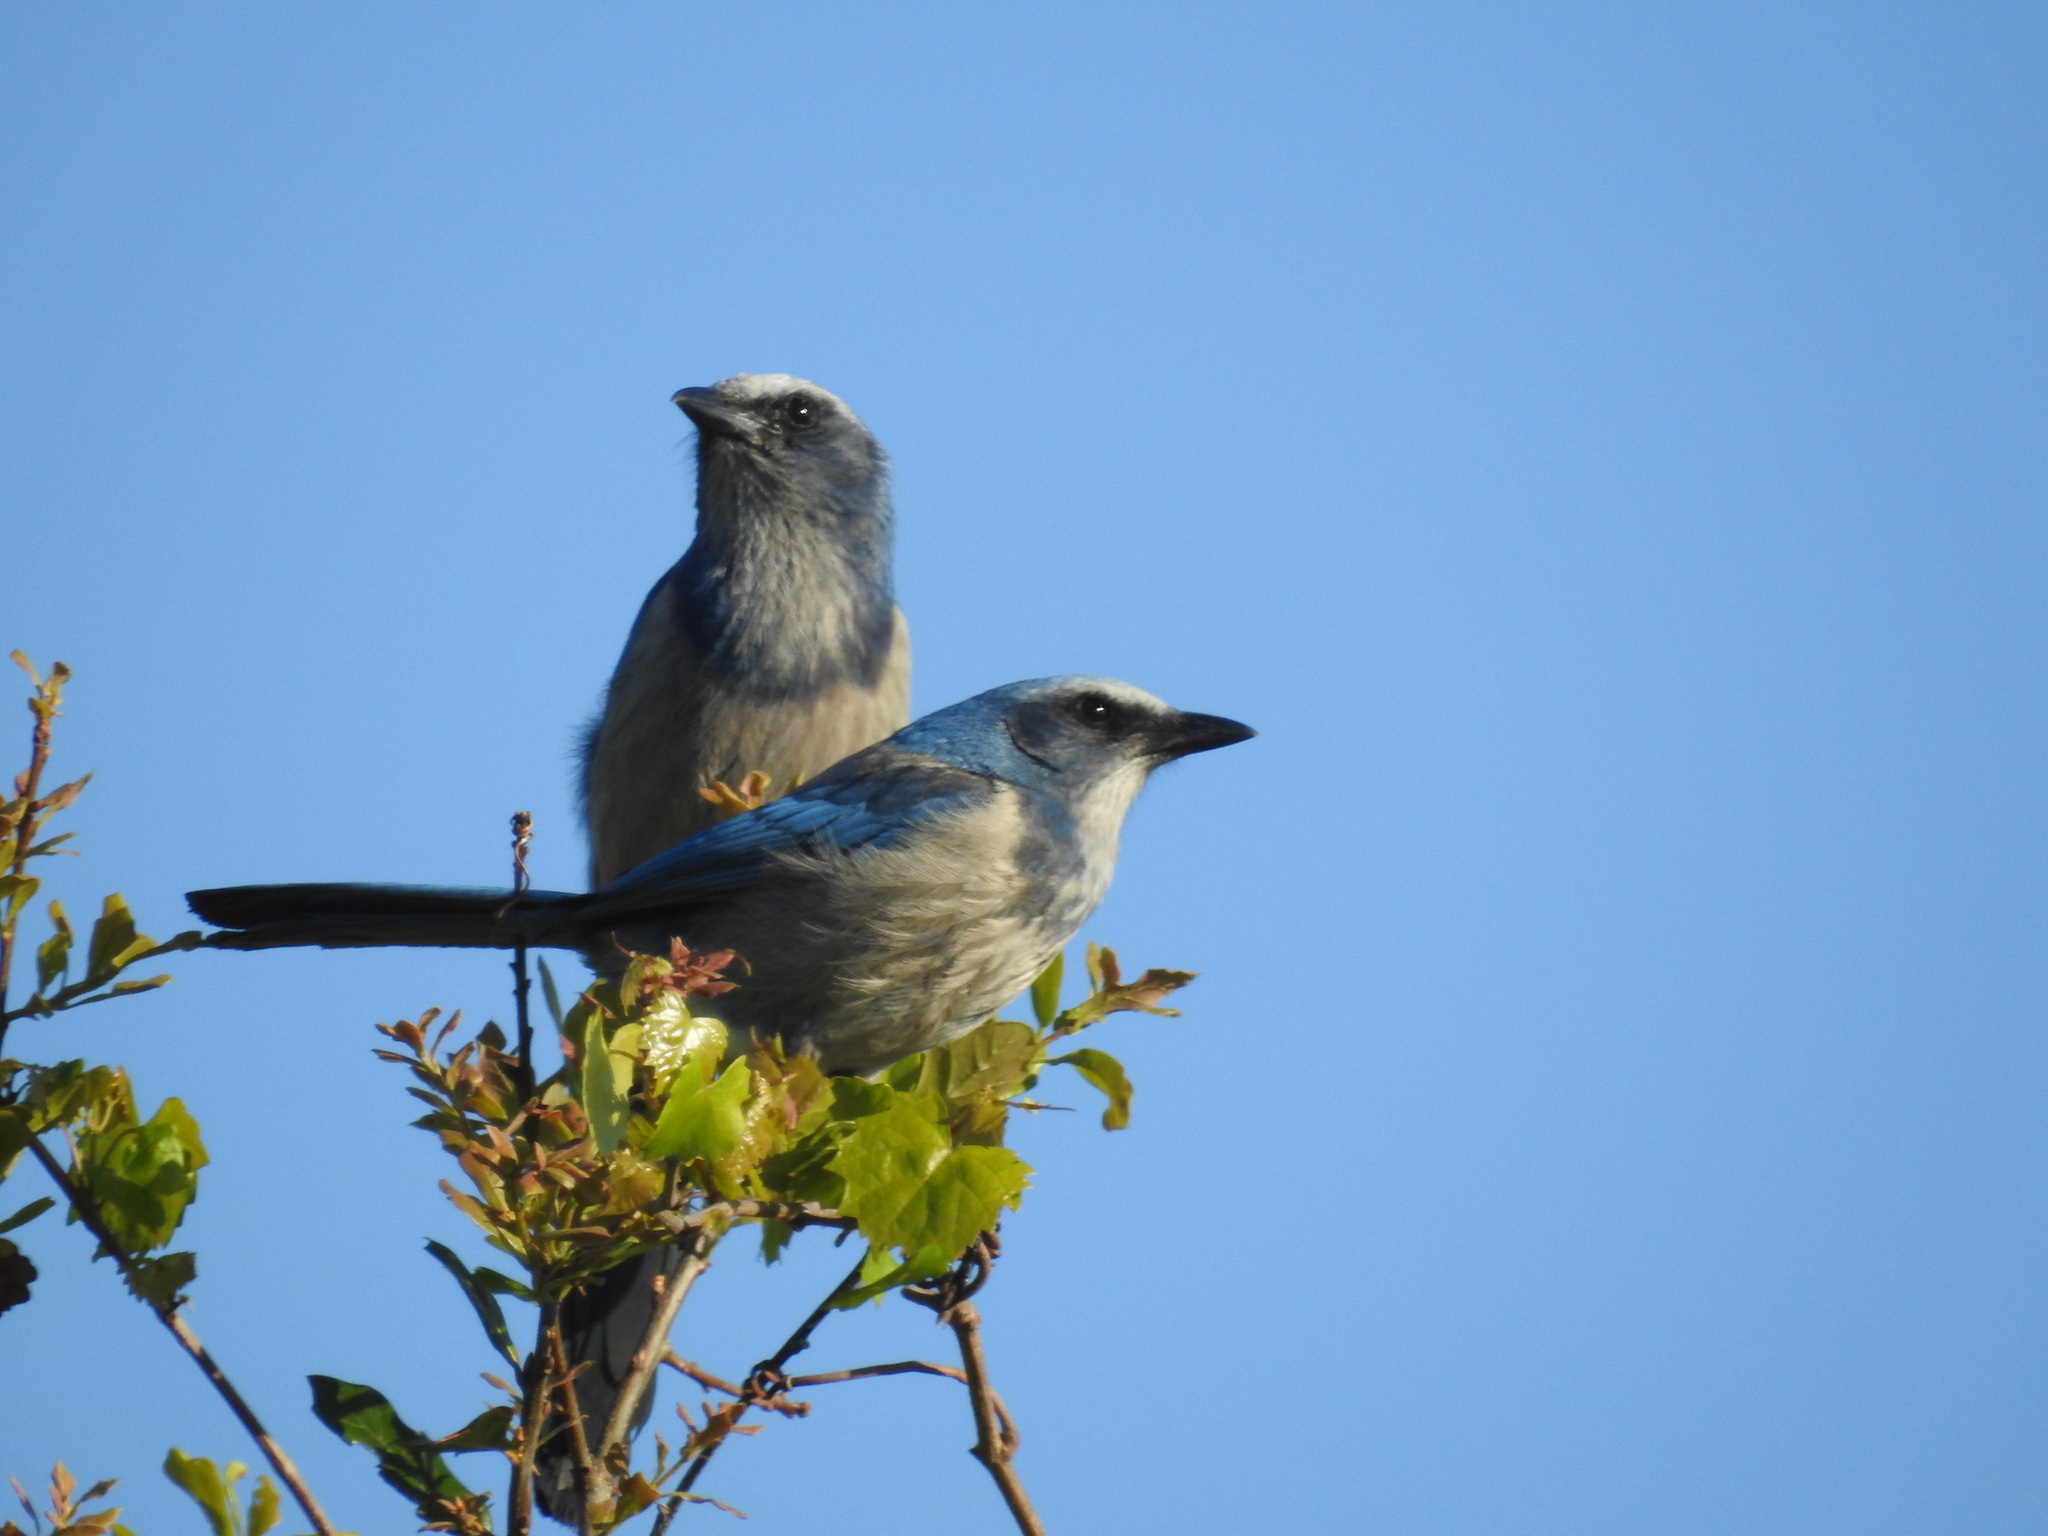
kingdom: Animalia
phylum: Chordata
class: Aves
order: Passeriformes
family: Corvidae
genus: Aphelocoma
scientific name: Aphelocoma coerulescens
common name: Florida scrub jay
